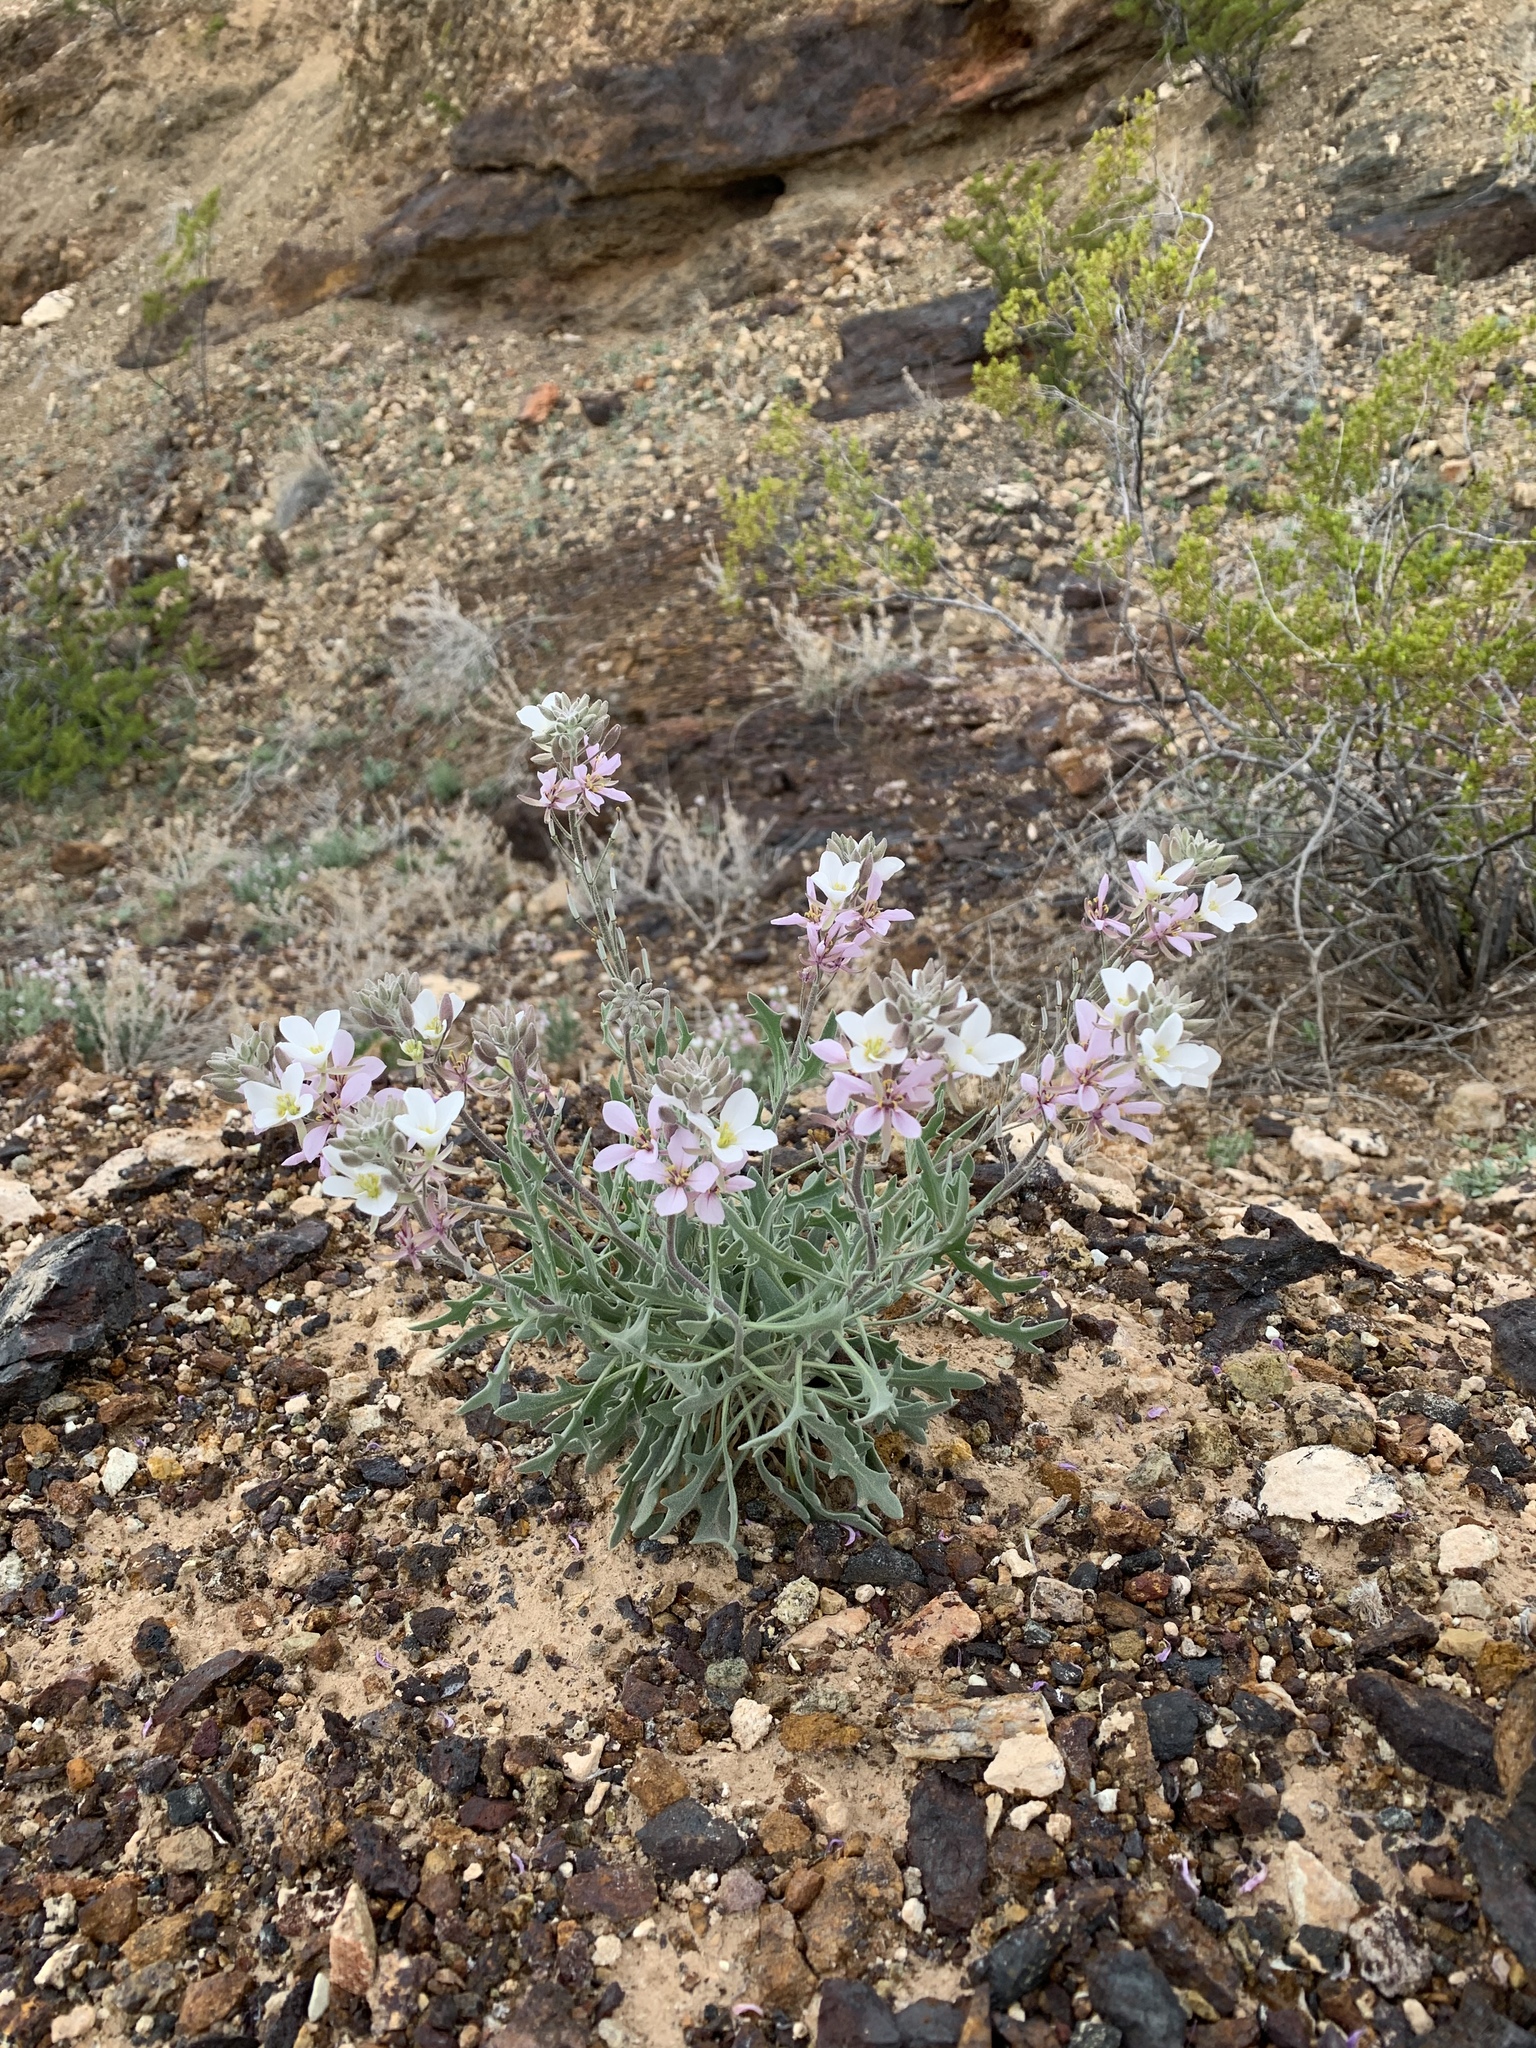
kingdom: Plantae
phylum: Tracheophyta
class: Magnoliopsida
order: Brassicales
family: Brassicaceae
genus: Nerisyrenia
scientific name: Nerisyrenia camporum
